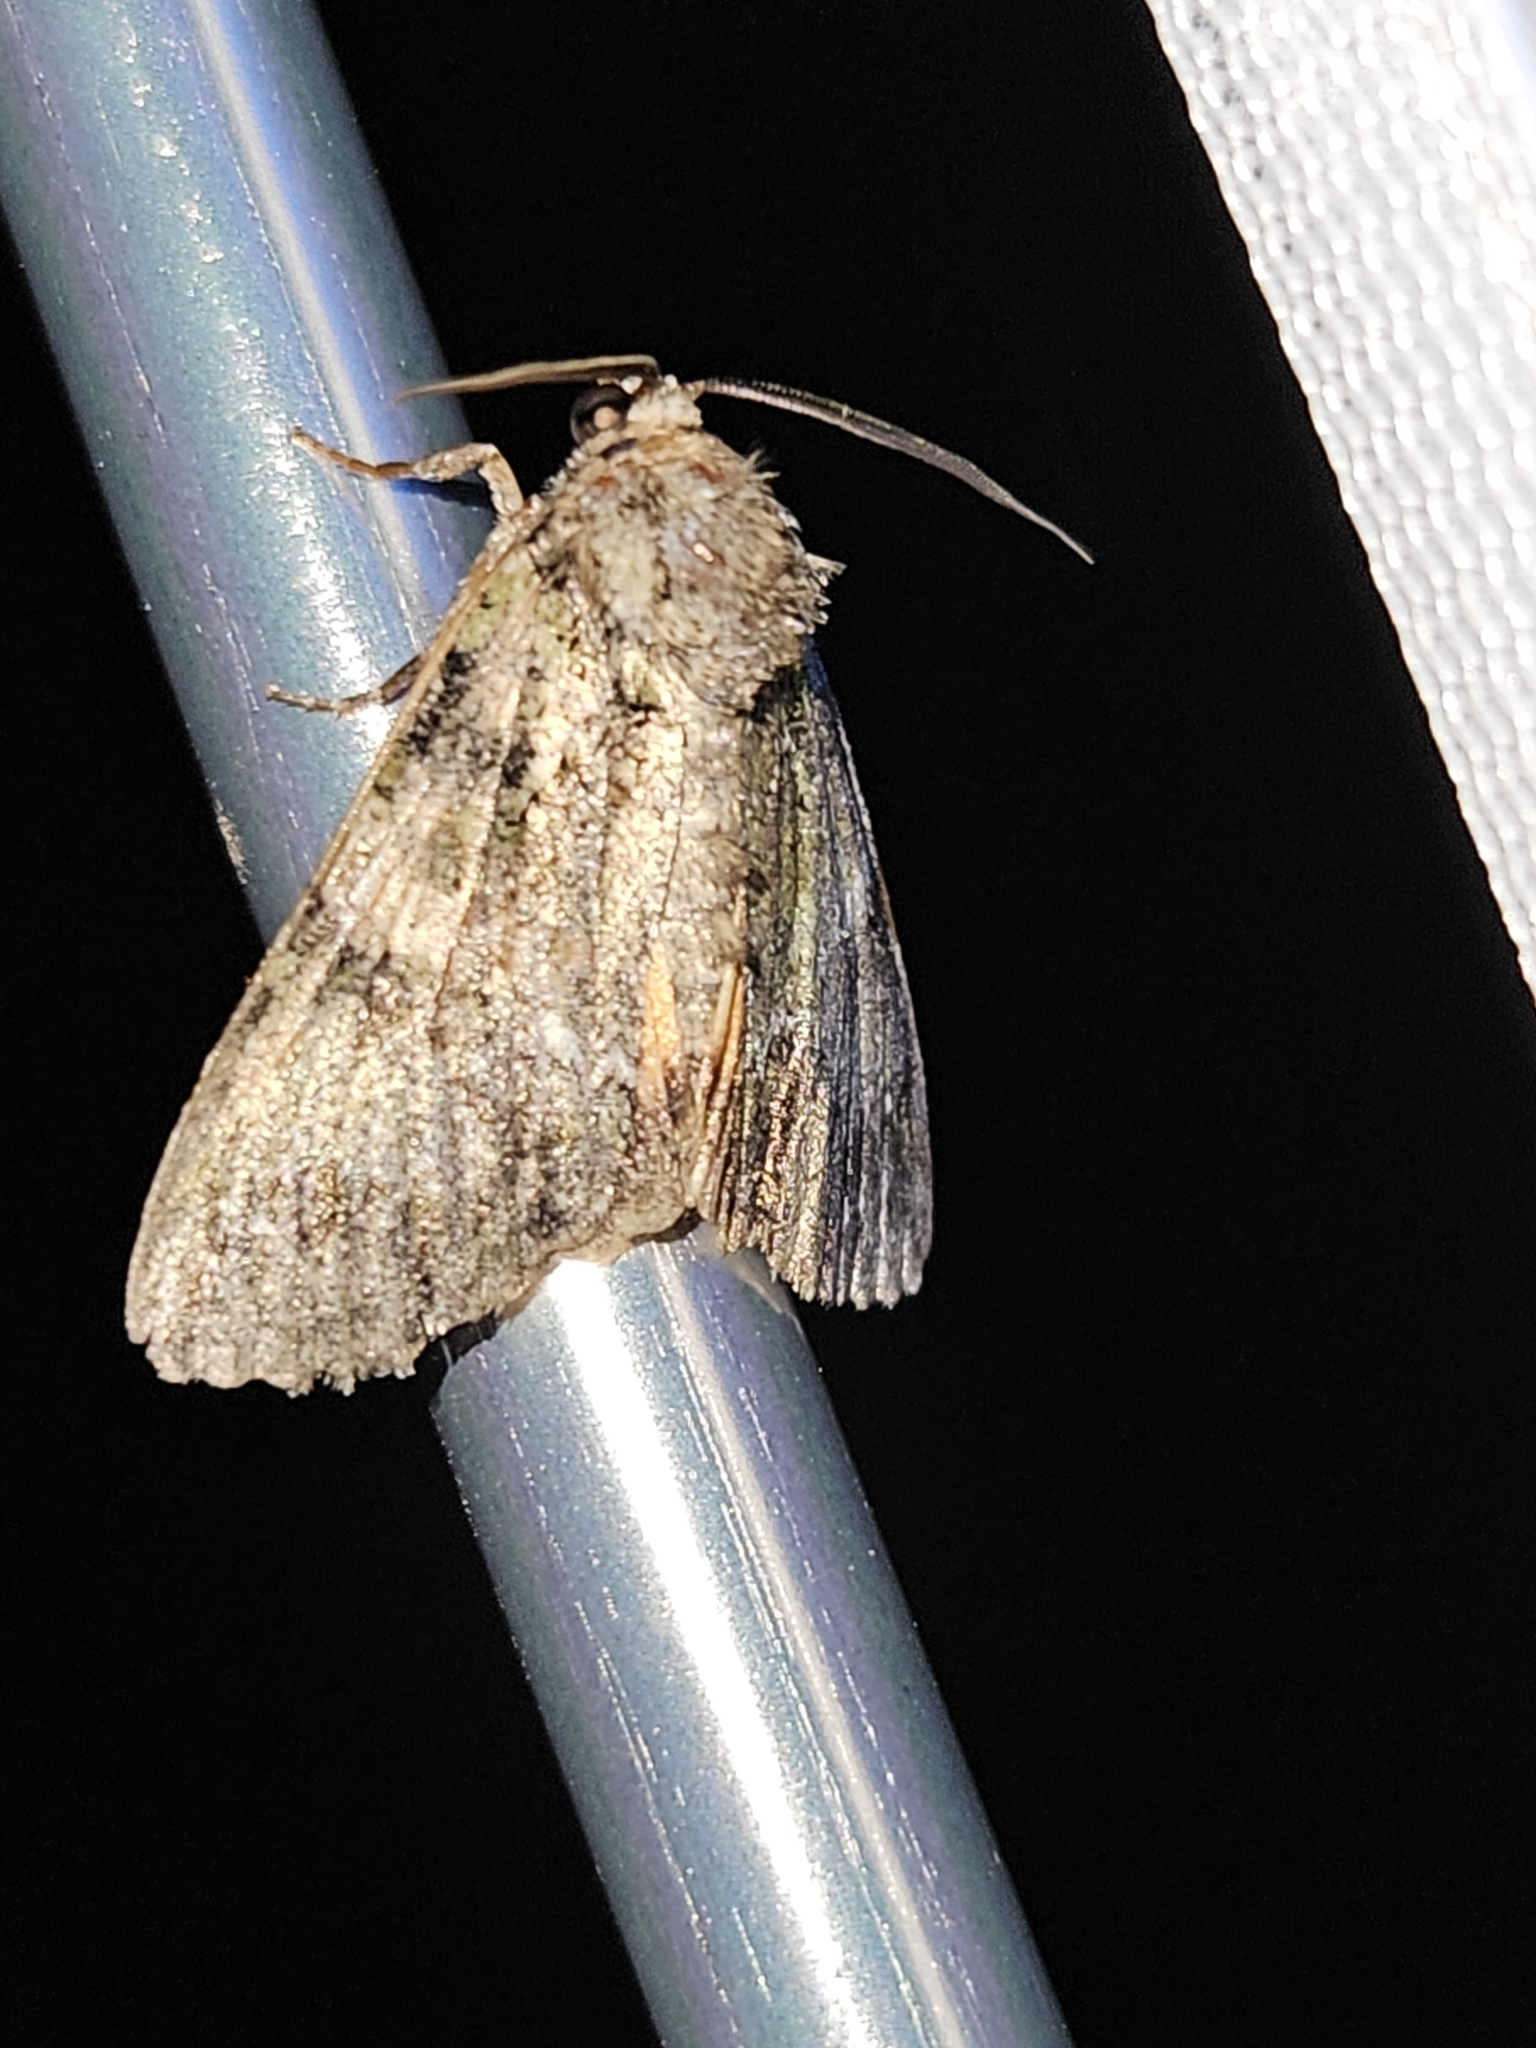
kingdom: Animalia
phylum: Arthropoda
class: Insecta
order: Lepidoptera
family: Noctuidae
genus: Polyphaenis
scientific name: Polyphaenis sericata
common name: Guernsey underwing
